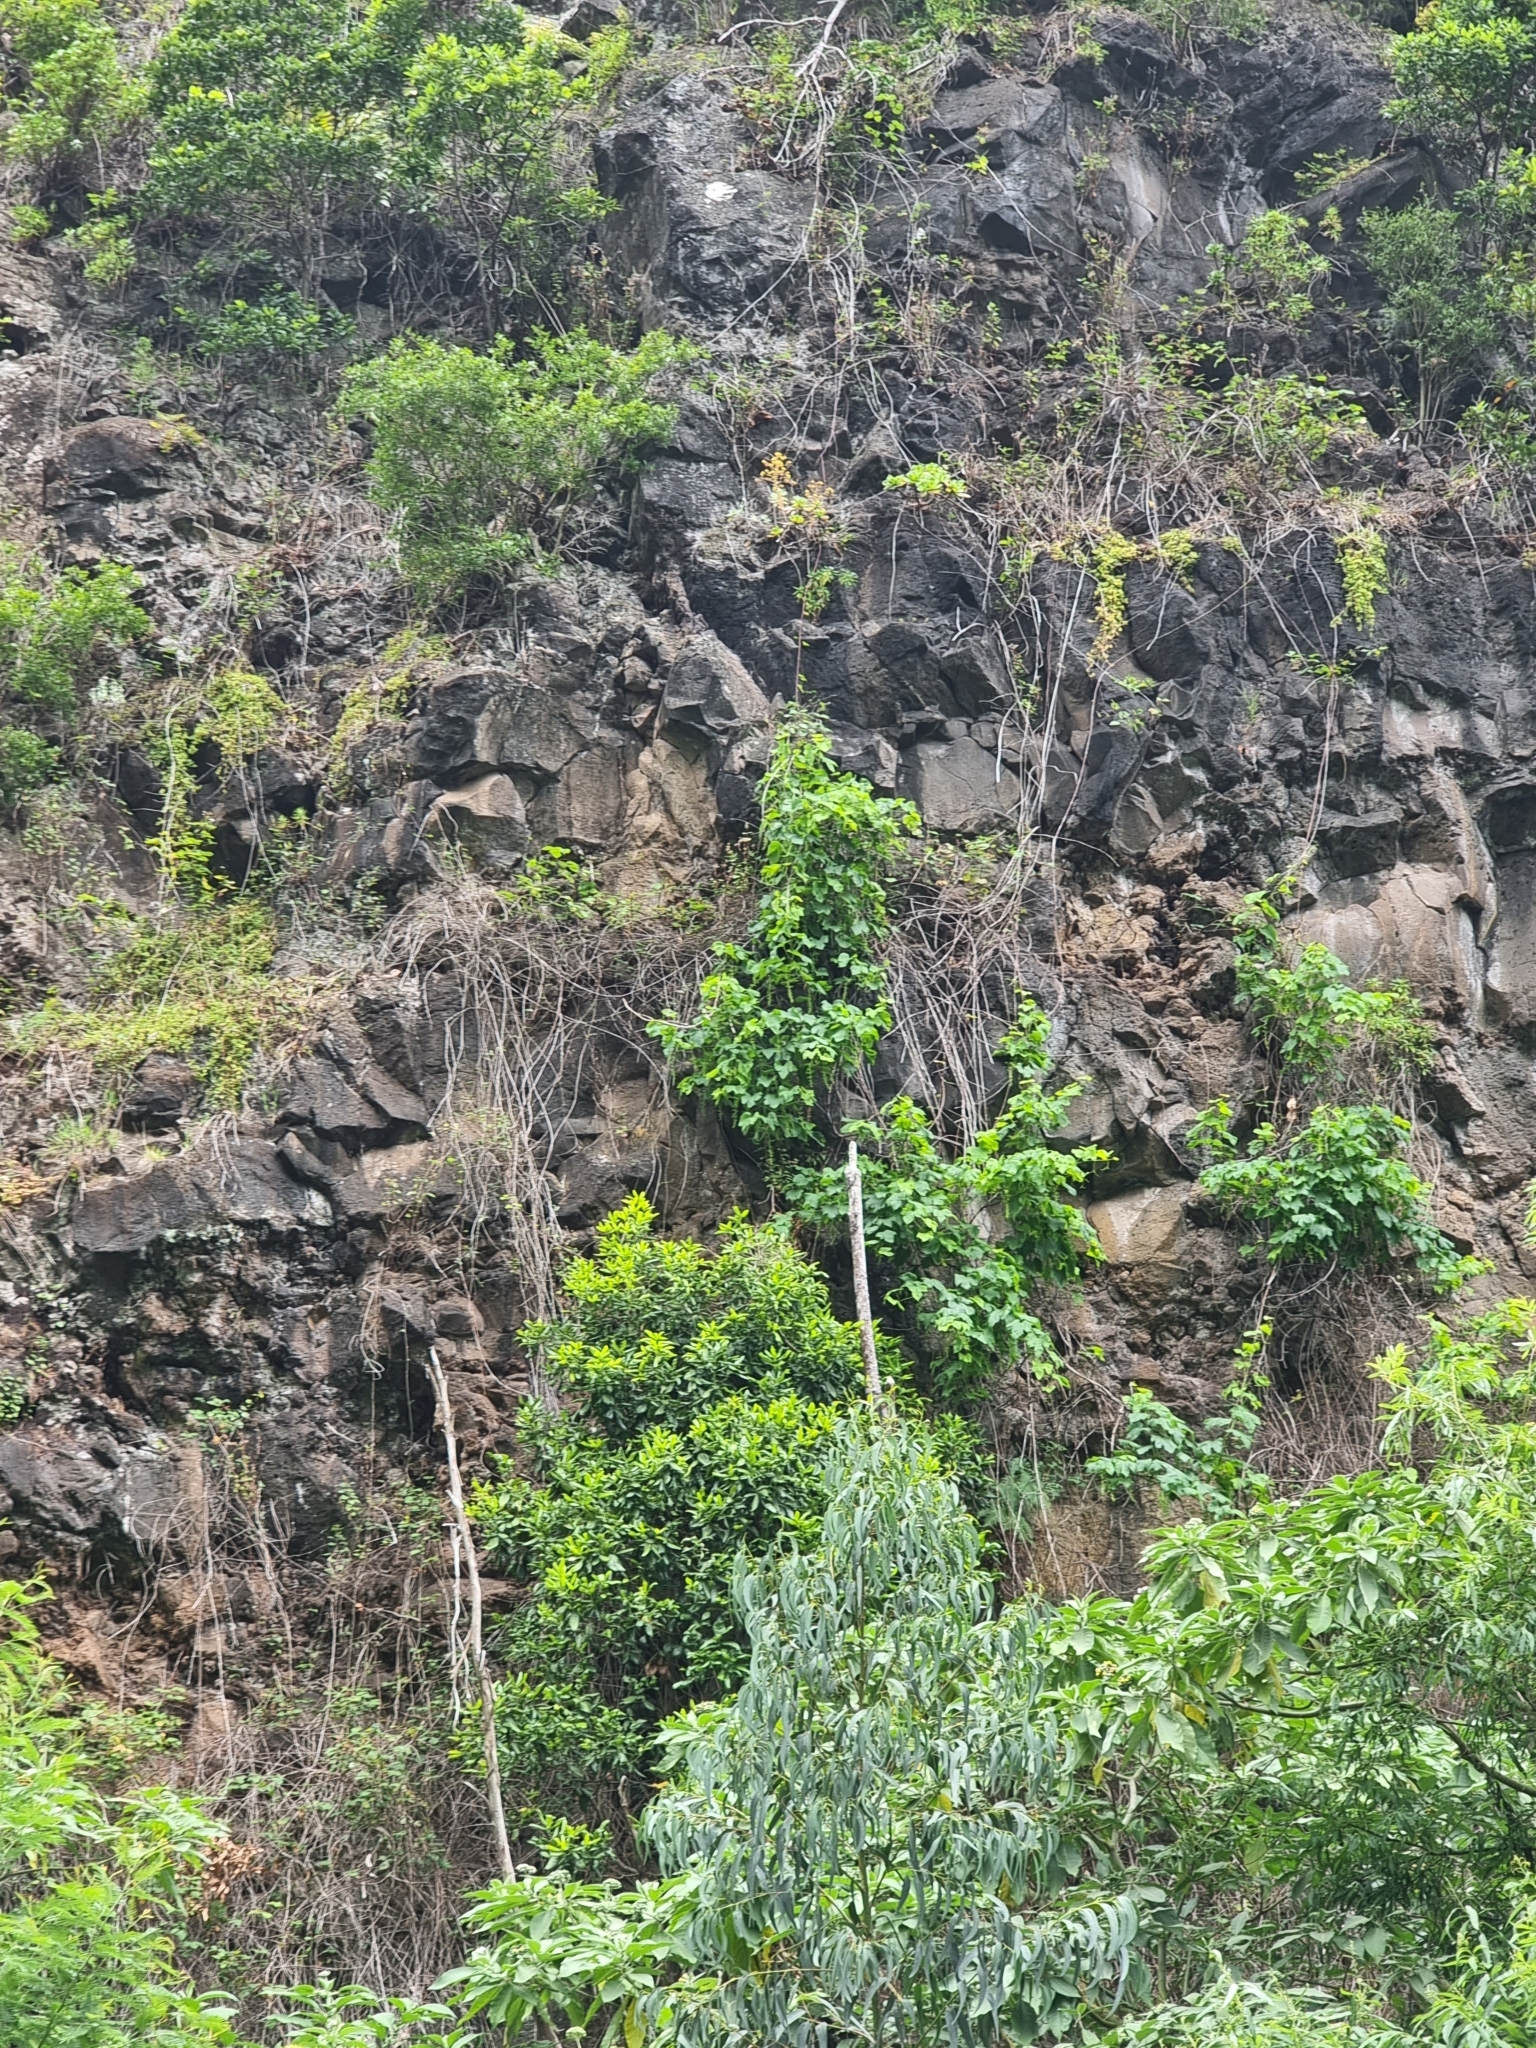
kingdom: Plantae
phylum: Tracheophyta
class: Magnoliopsida
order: Vitales
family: Vitaceae
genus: Vitis
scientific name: Vitis vinifera
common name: Grape-vine
